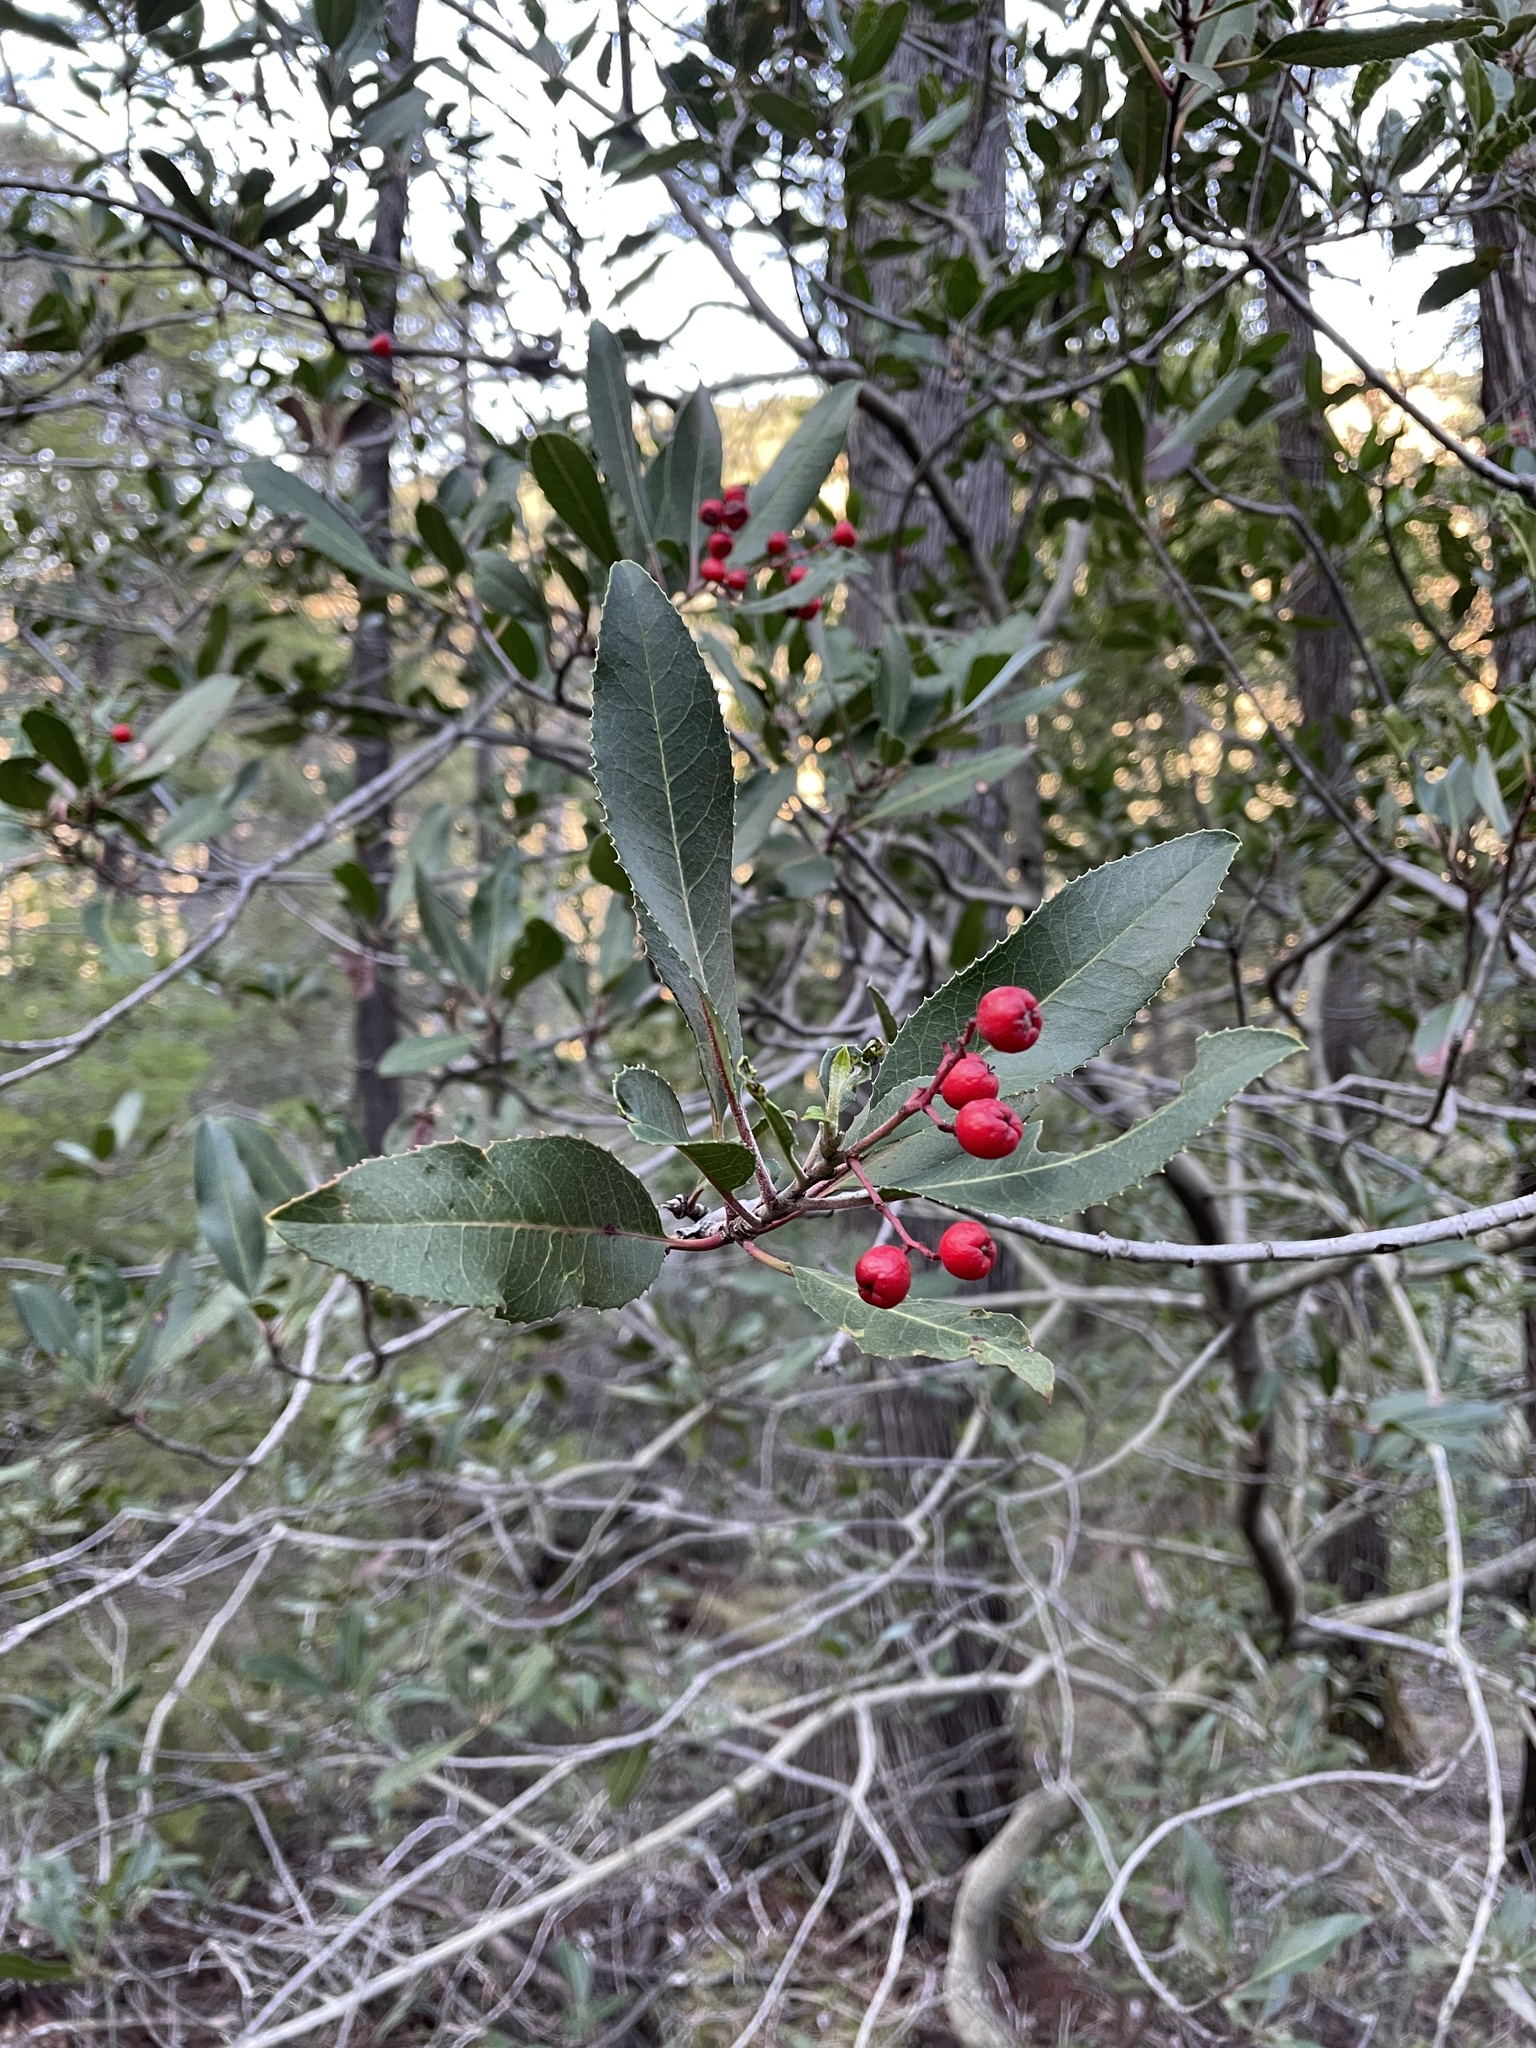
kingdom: Plantae
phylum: Tracheophyta
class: Magnoliopsida
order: Rosales
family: Rosaceae
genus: Heteromeles
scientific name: Heteromeles arbutifolia
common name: California-holly
